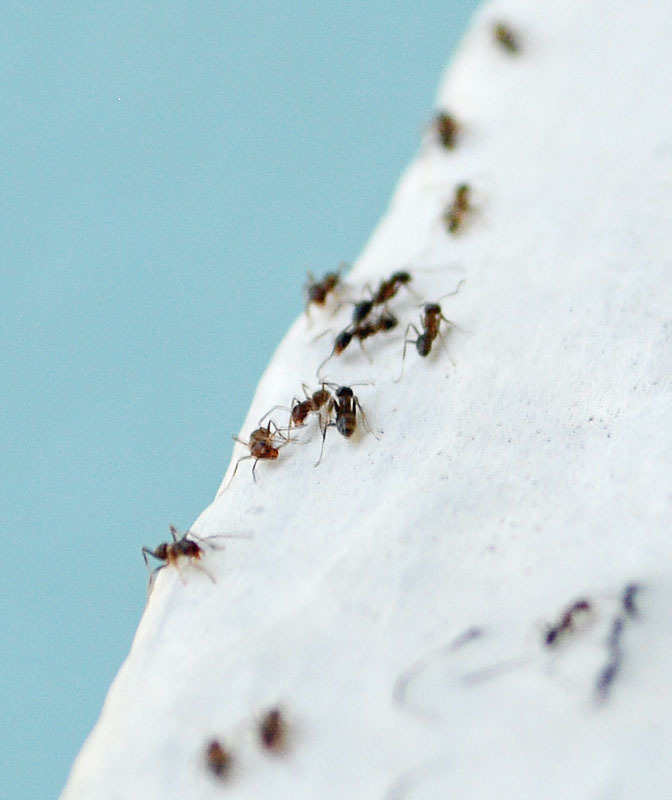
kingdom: Animalia
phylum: Arthropoda
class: Insecta
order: Hymenoptera
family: Formicidae
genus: Linepithema
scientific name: Linepithema humile
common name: Argentine ant
